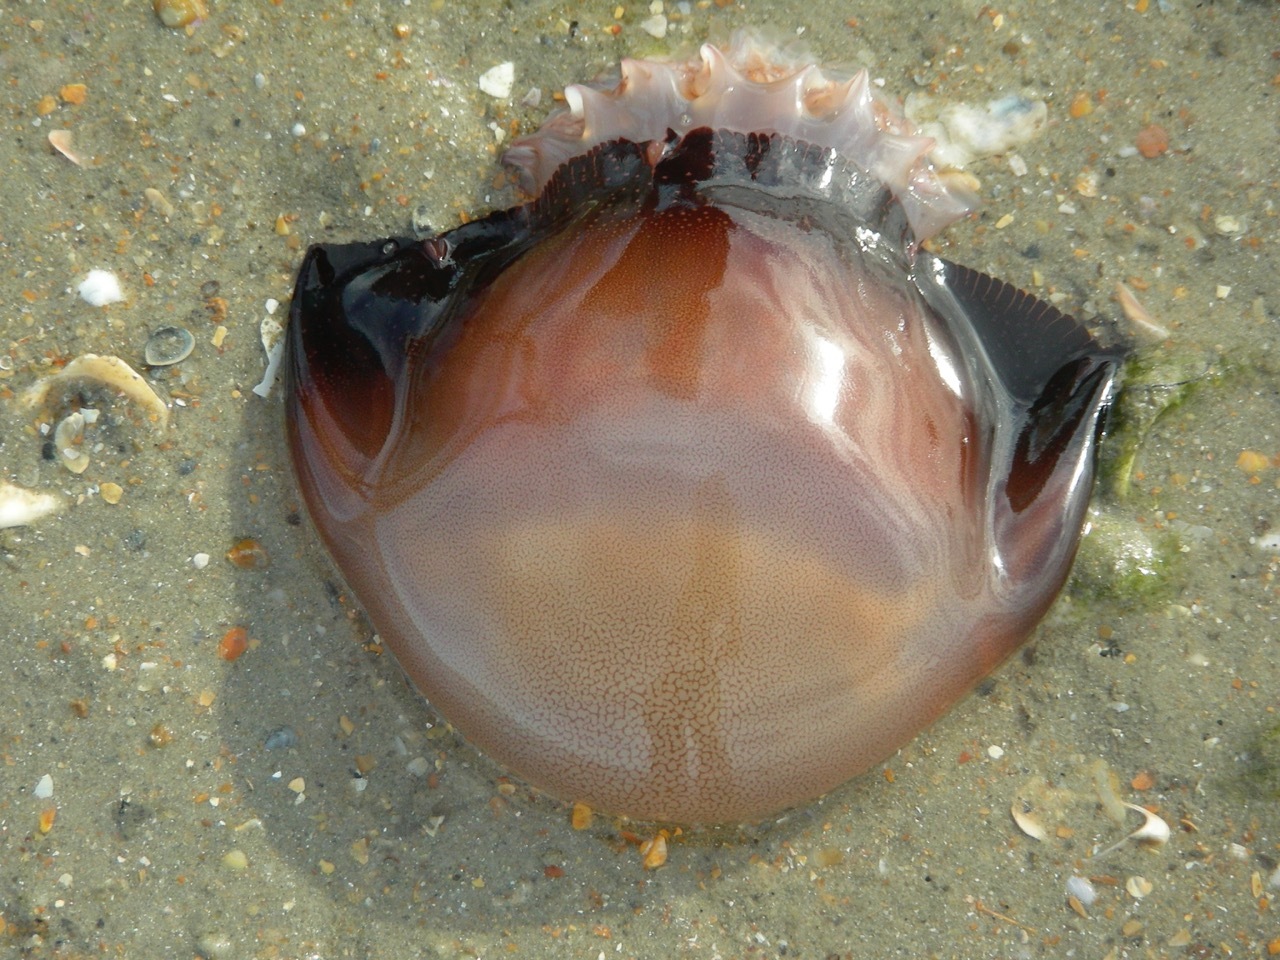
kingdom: Animalia
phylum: Cnidaria
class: Scyphozoa
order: Rhizostomeae
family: Stomolophidae
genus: Stomolophus
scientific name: Stomolophus meleagris
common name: Cabbagehead
